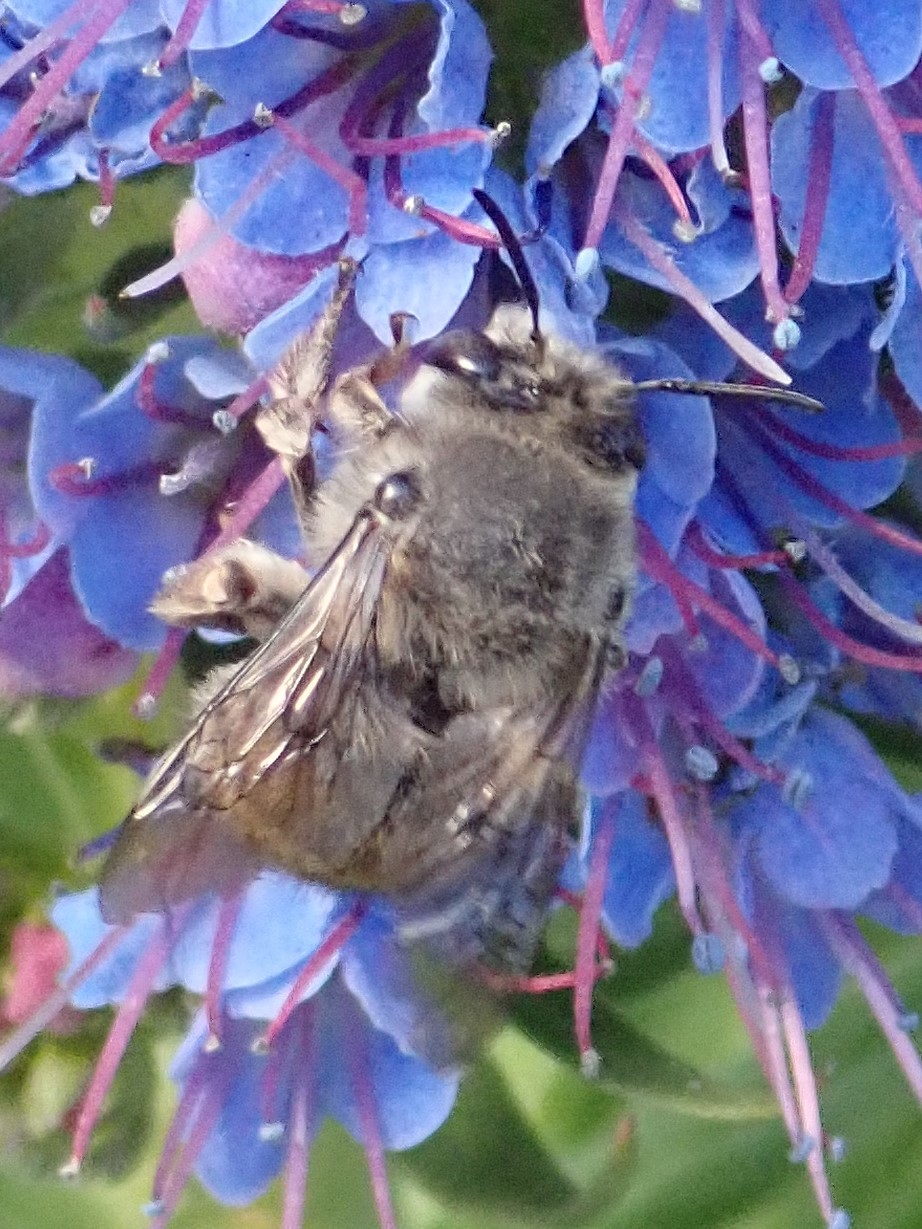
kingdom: Animalia
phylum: Arthropoda
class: Insecta
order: Hymenoptera
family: Apidae
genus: Habropoda
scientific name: Habropoda depressa
